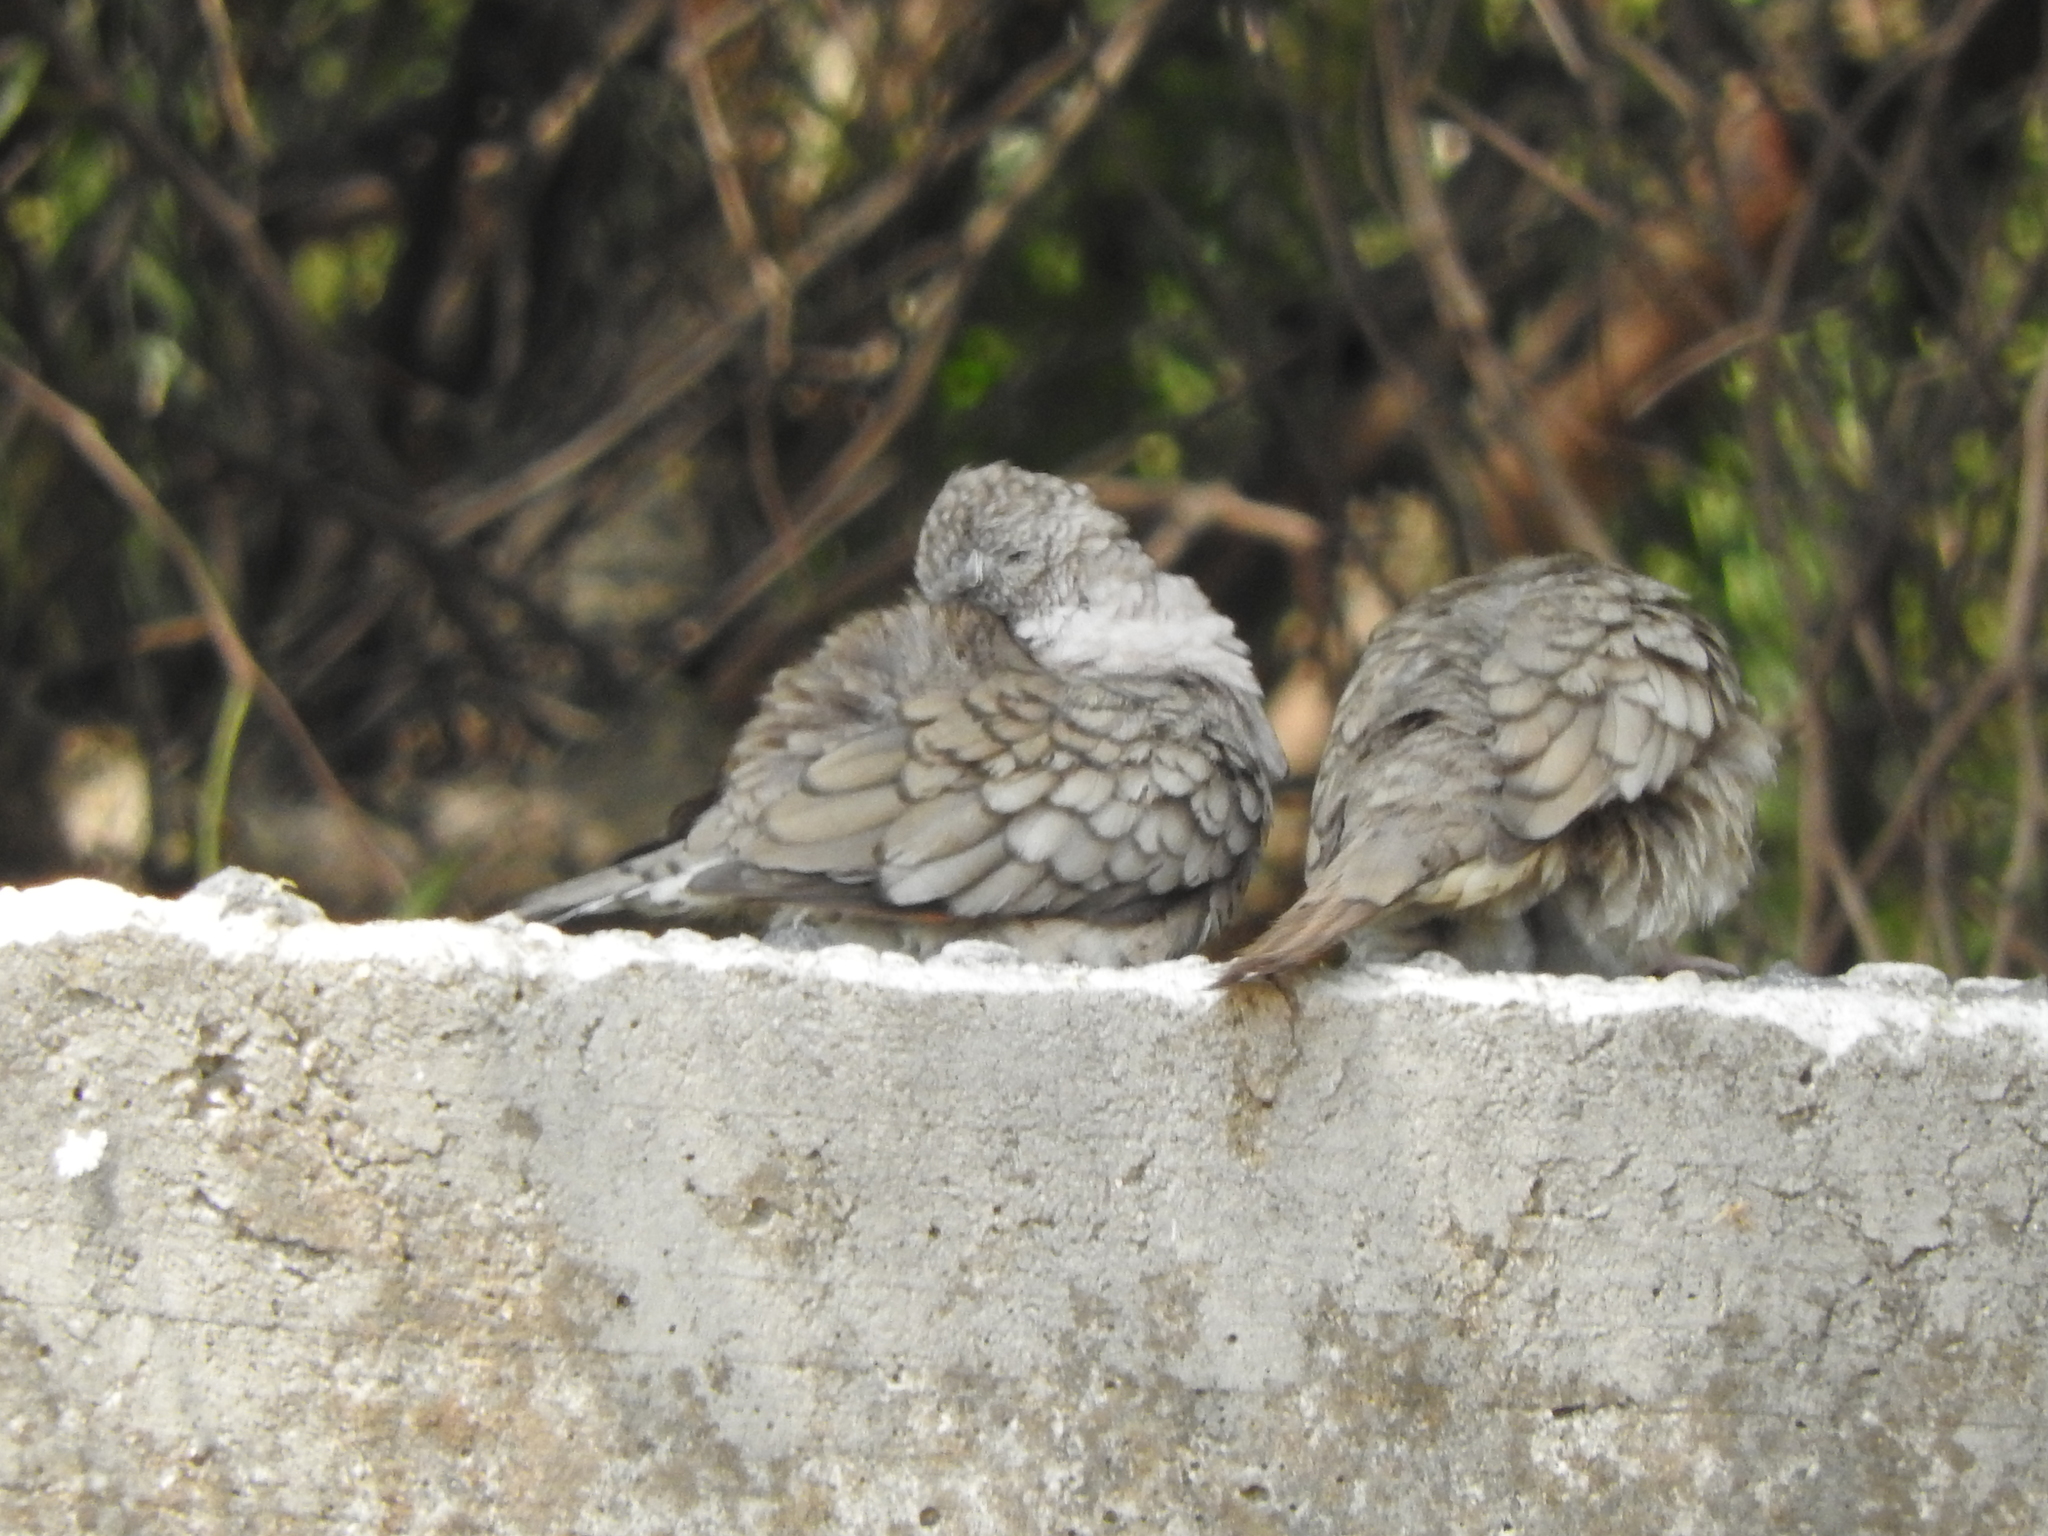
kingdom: Animalia
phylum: Chordata
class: Aves
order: Columbiformes
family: Columbidae
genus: Columbina
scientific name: Columbina inca
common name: Inca dove
